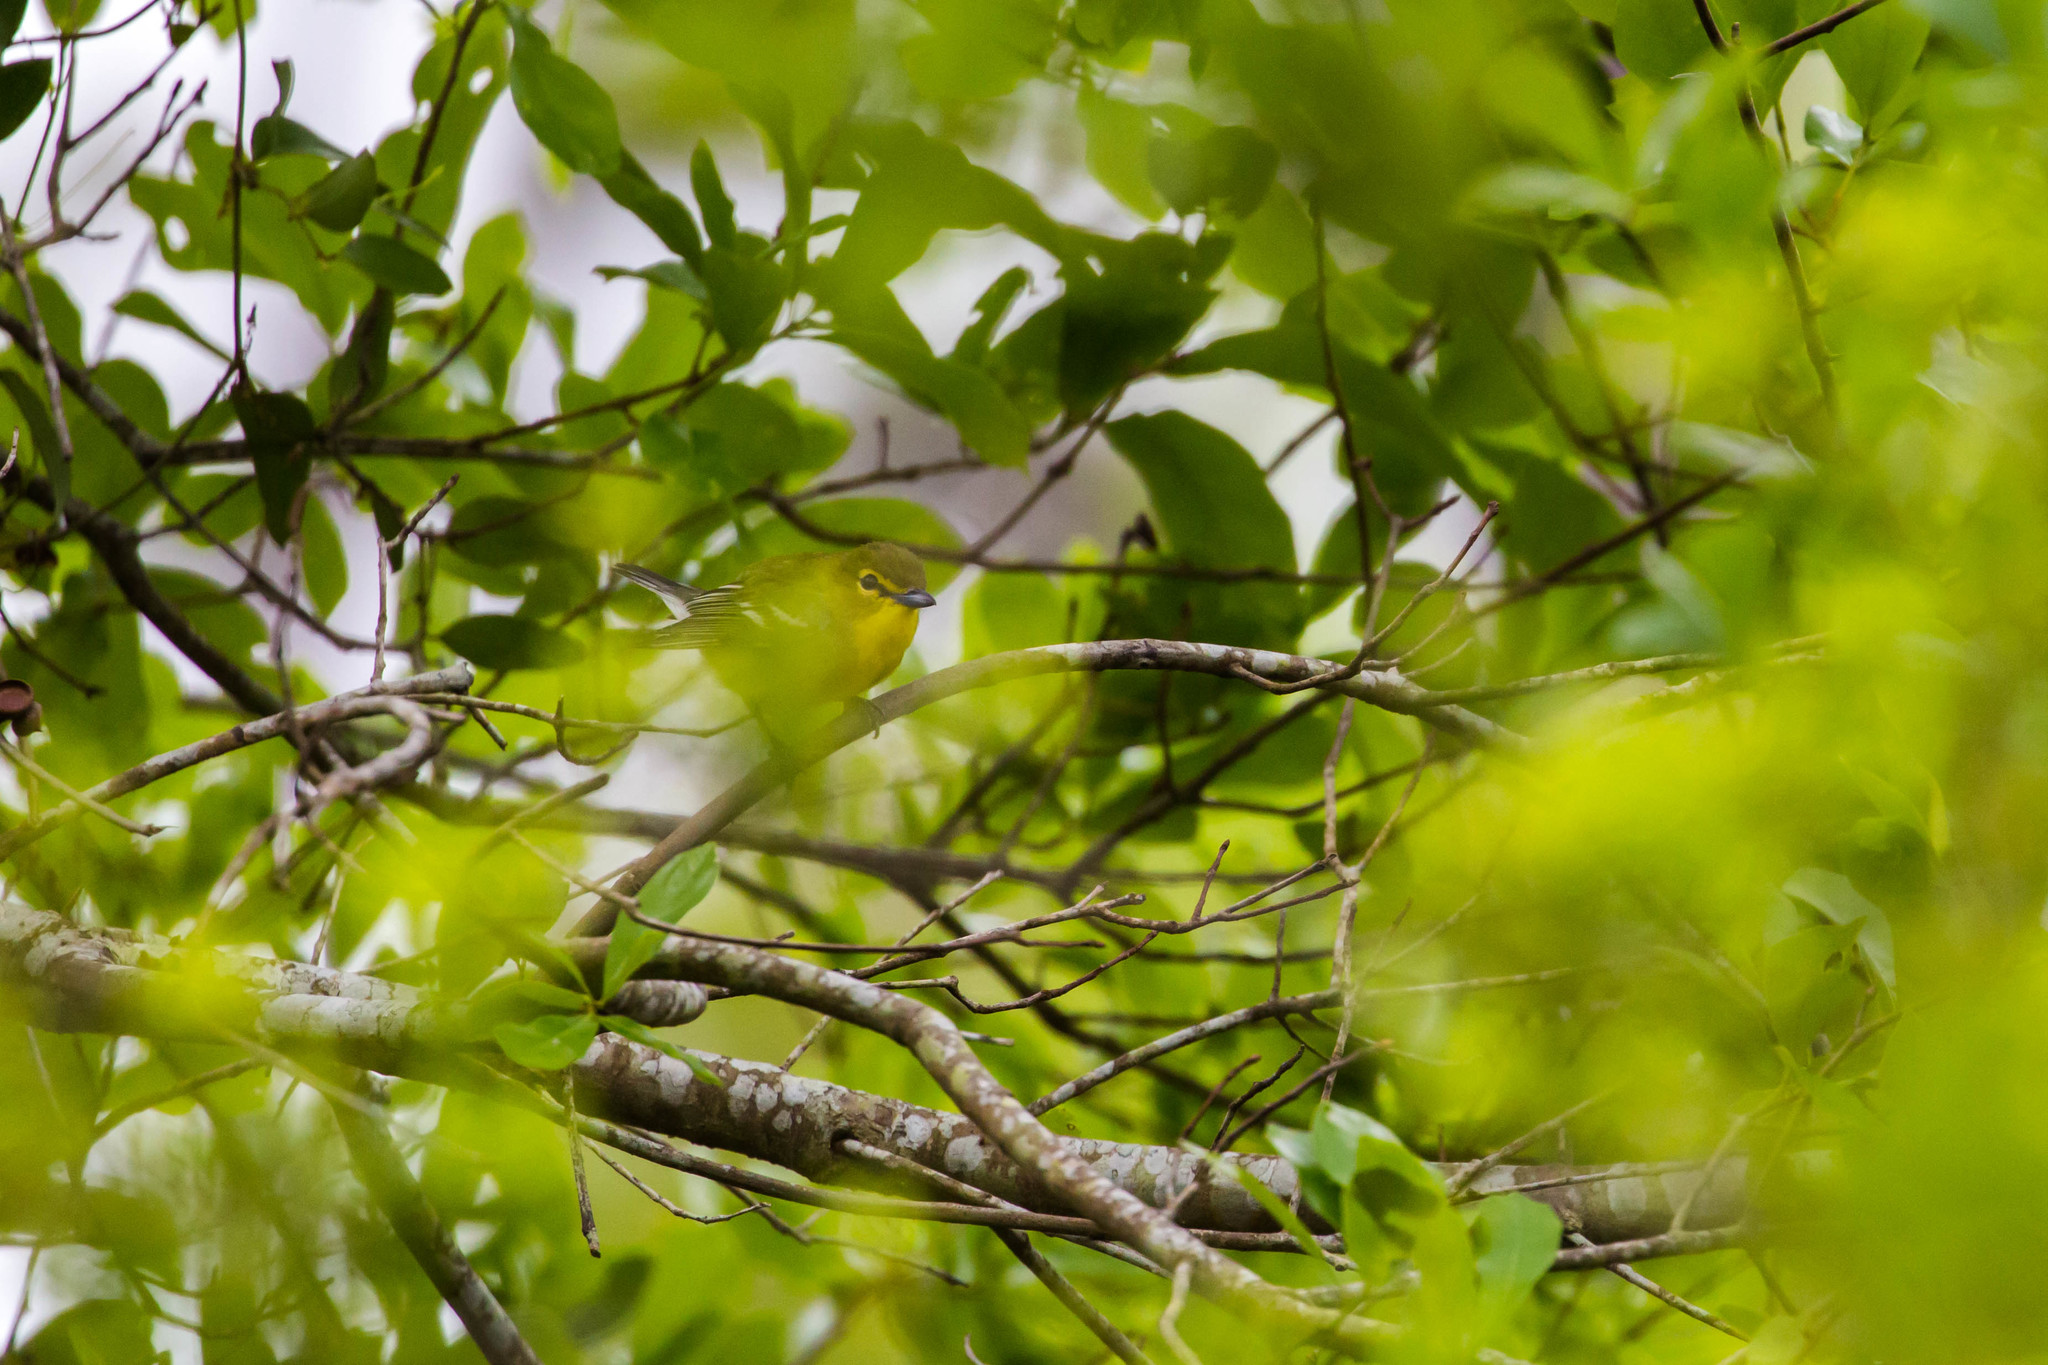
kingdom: Animalia
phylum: Chordata
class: Aves
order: Passeriformes
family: Vireonidae
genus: Vireo
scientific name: Vireo flavifrons
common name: Yellow-throated vireo
